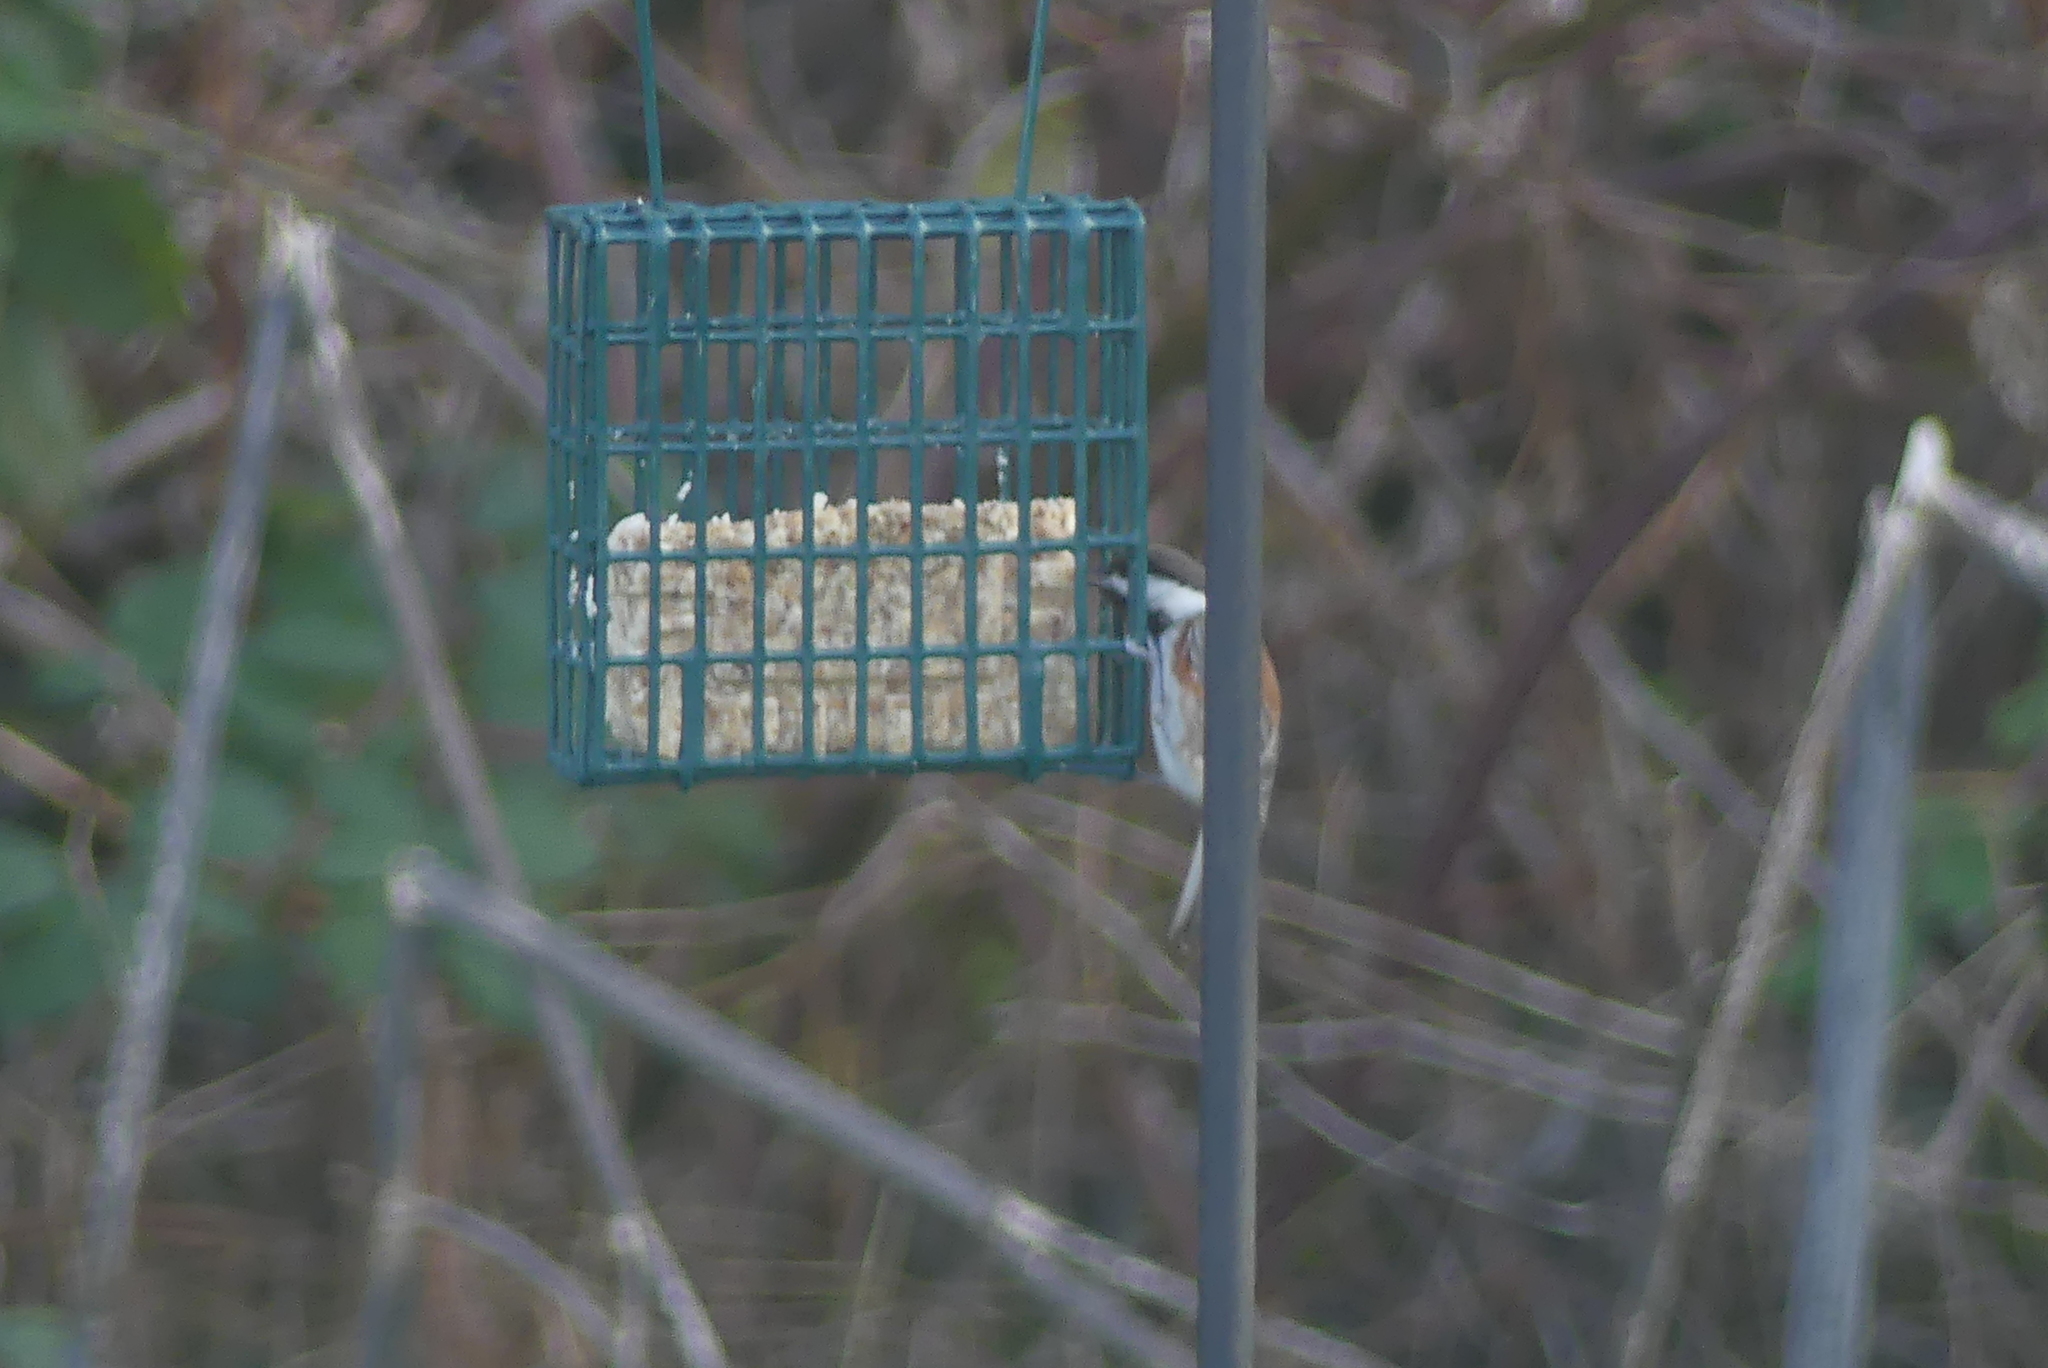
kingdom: Animalia
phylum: Chordata
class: Aves
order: Passeriformes
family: Paridae
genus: Poecile
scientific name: Poecile rufescens
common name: Chestnut-backed chickadee
